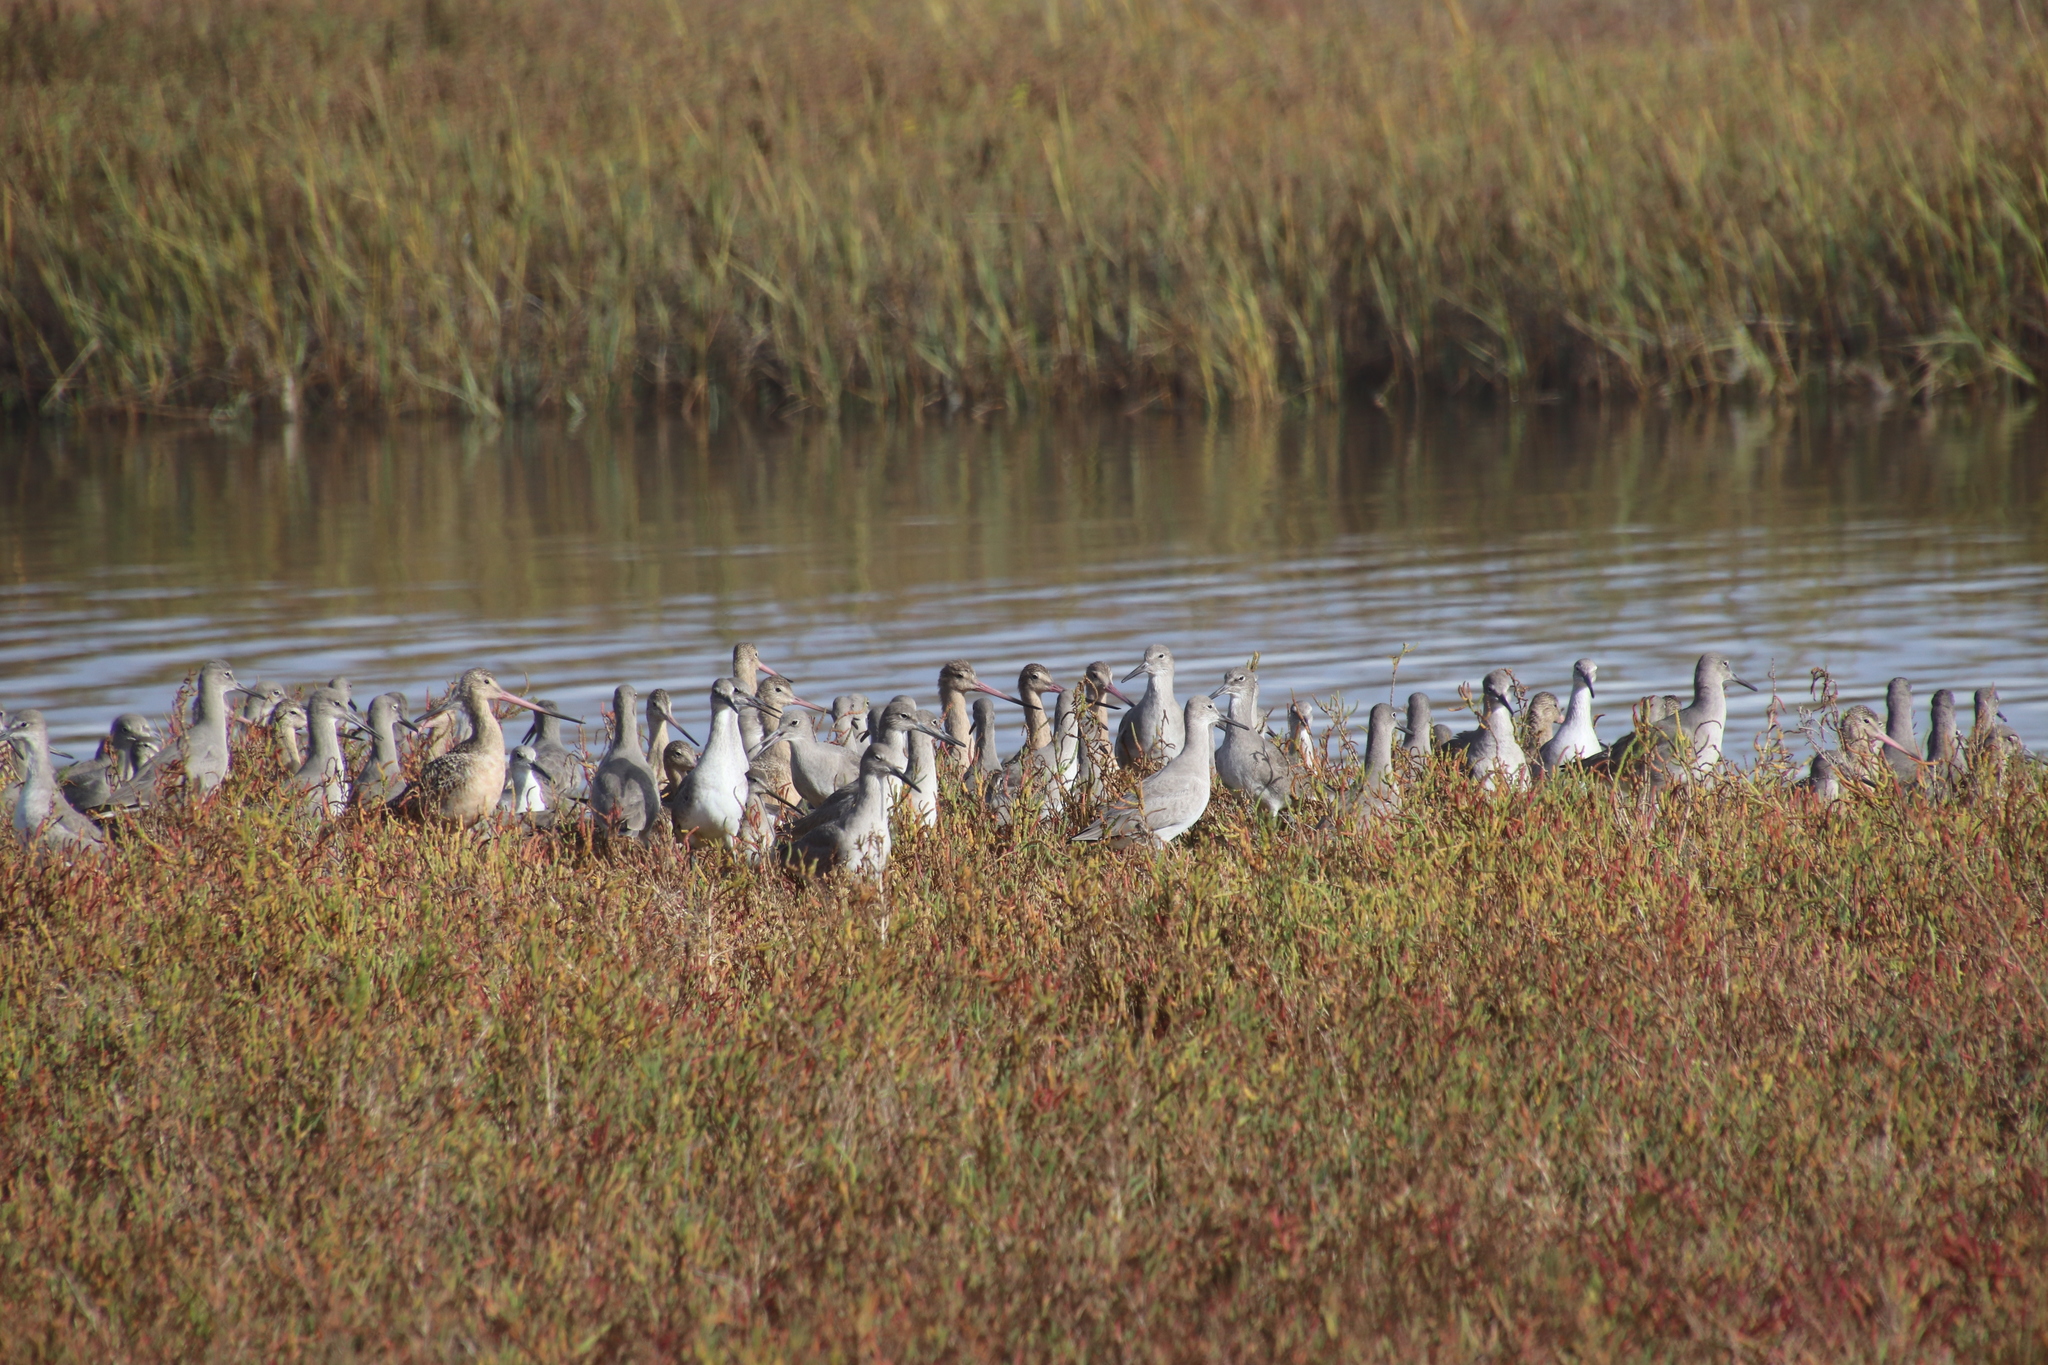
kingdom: Animalia
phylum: Chordata
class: Aves
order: Charadriiformes
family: Scolopacidae
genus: Tringa
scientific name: Tringa semipalmata
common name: Willet
